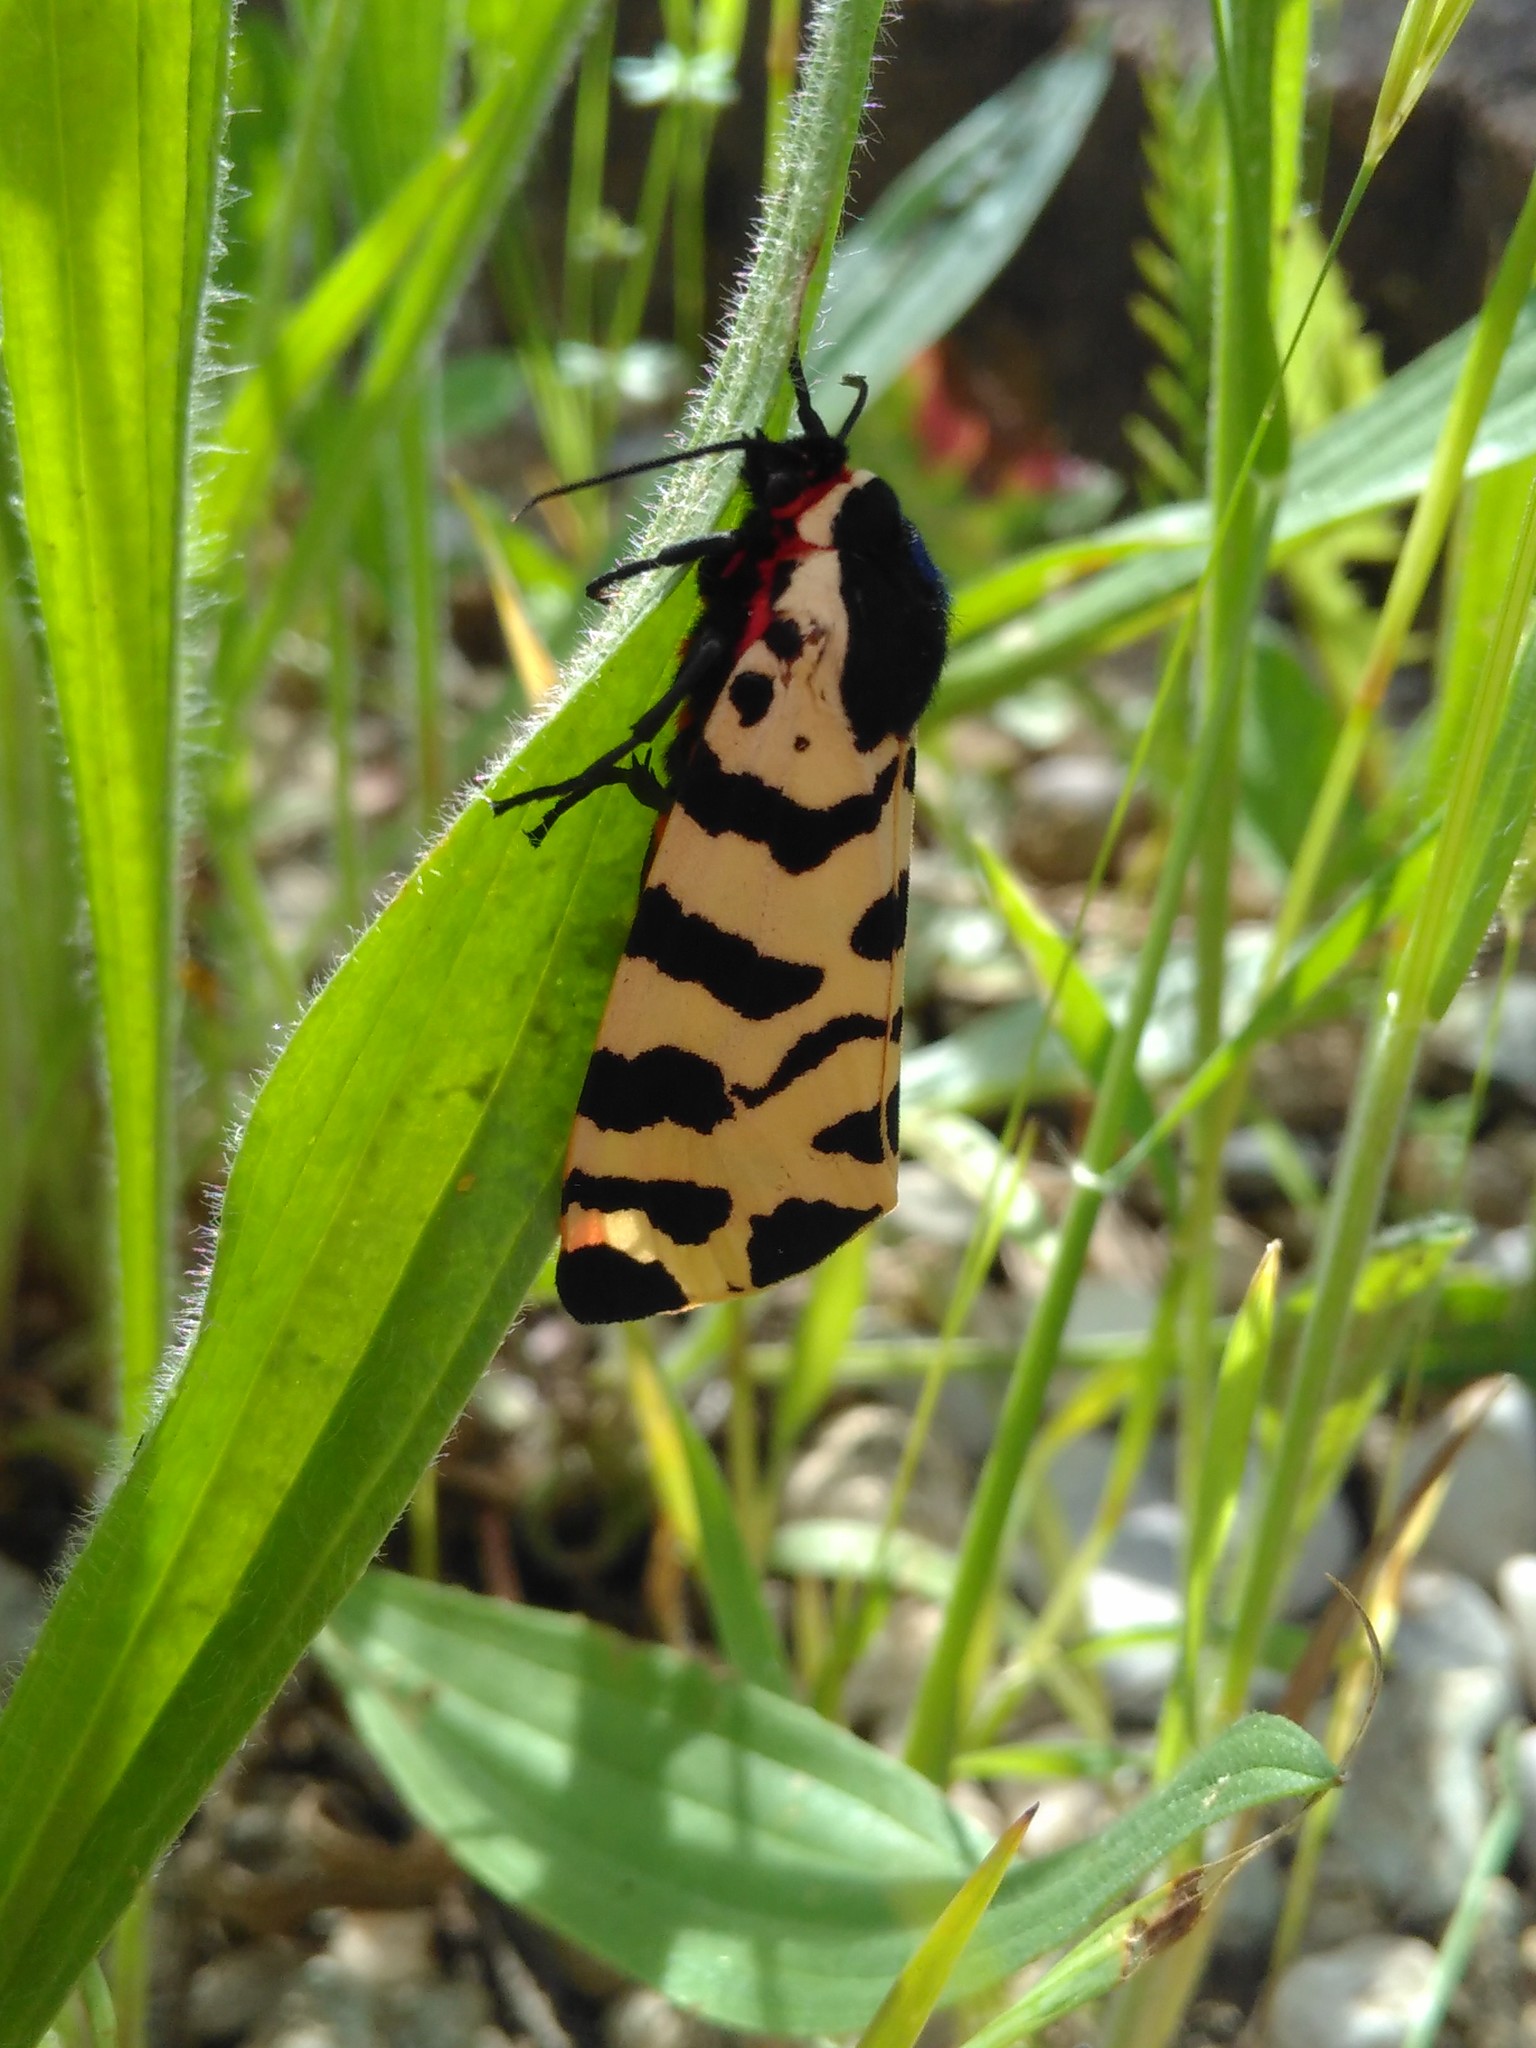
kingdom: Animalia
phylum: Arthropoda
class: Insecta
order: Lepidoptera
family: Erebidae
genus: Arctia
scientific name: Arctia tigrina
